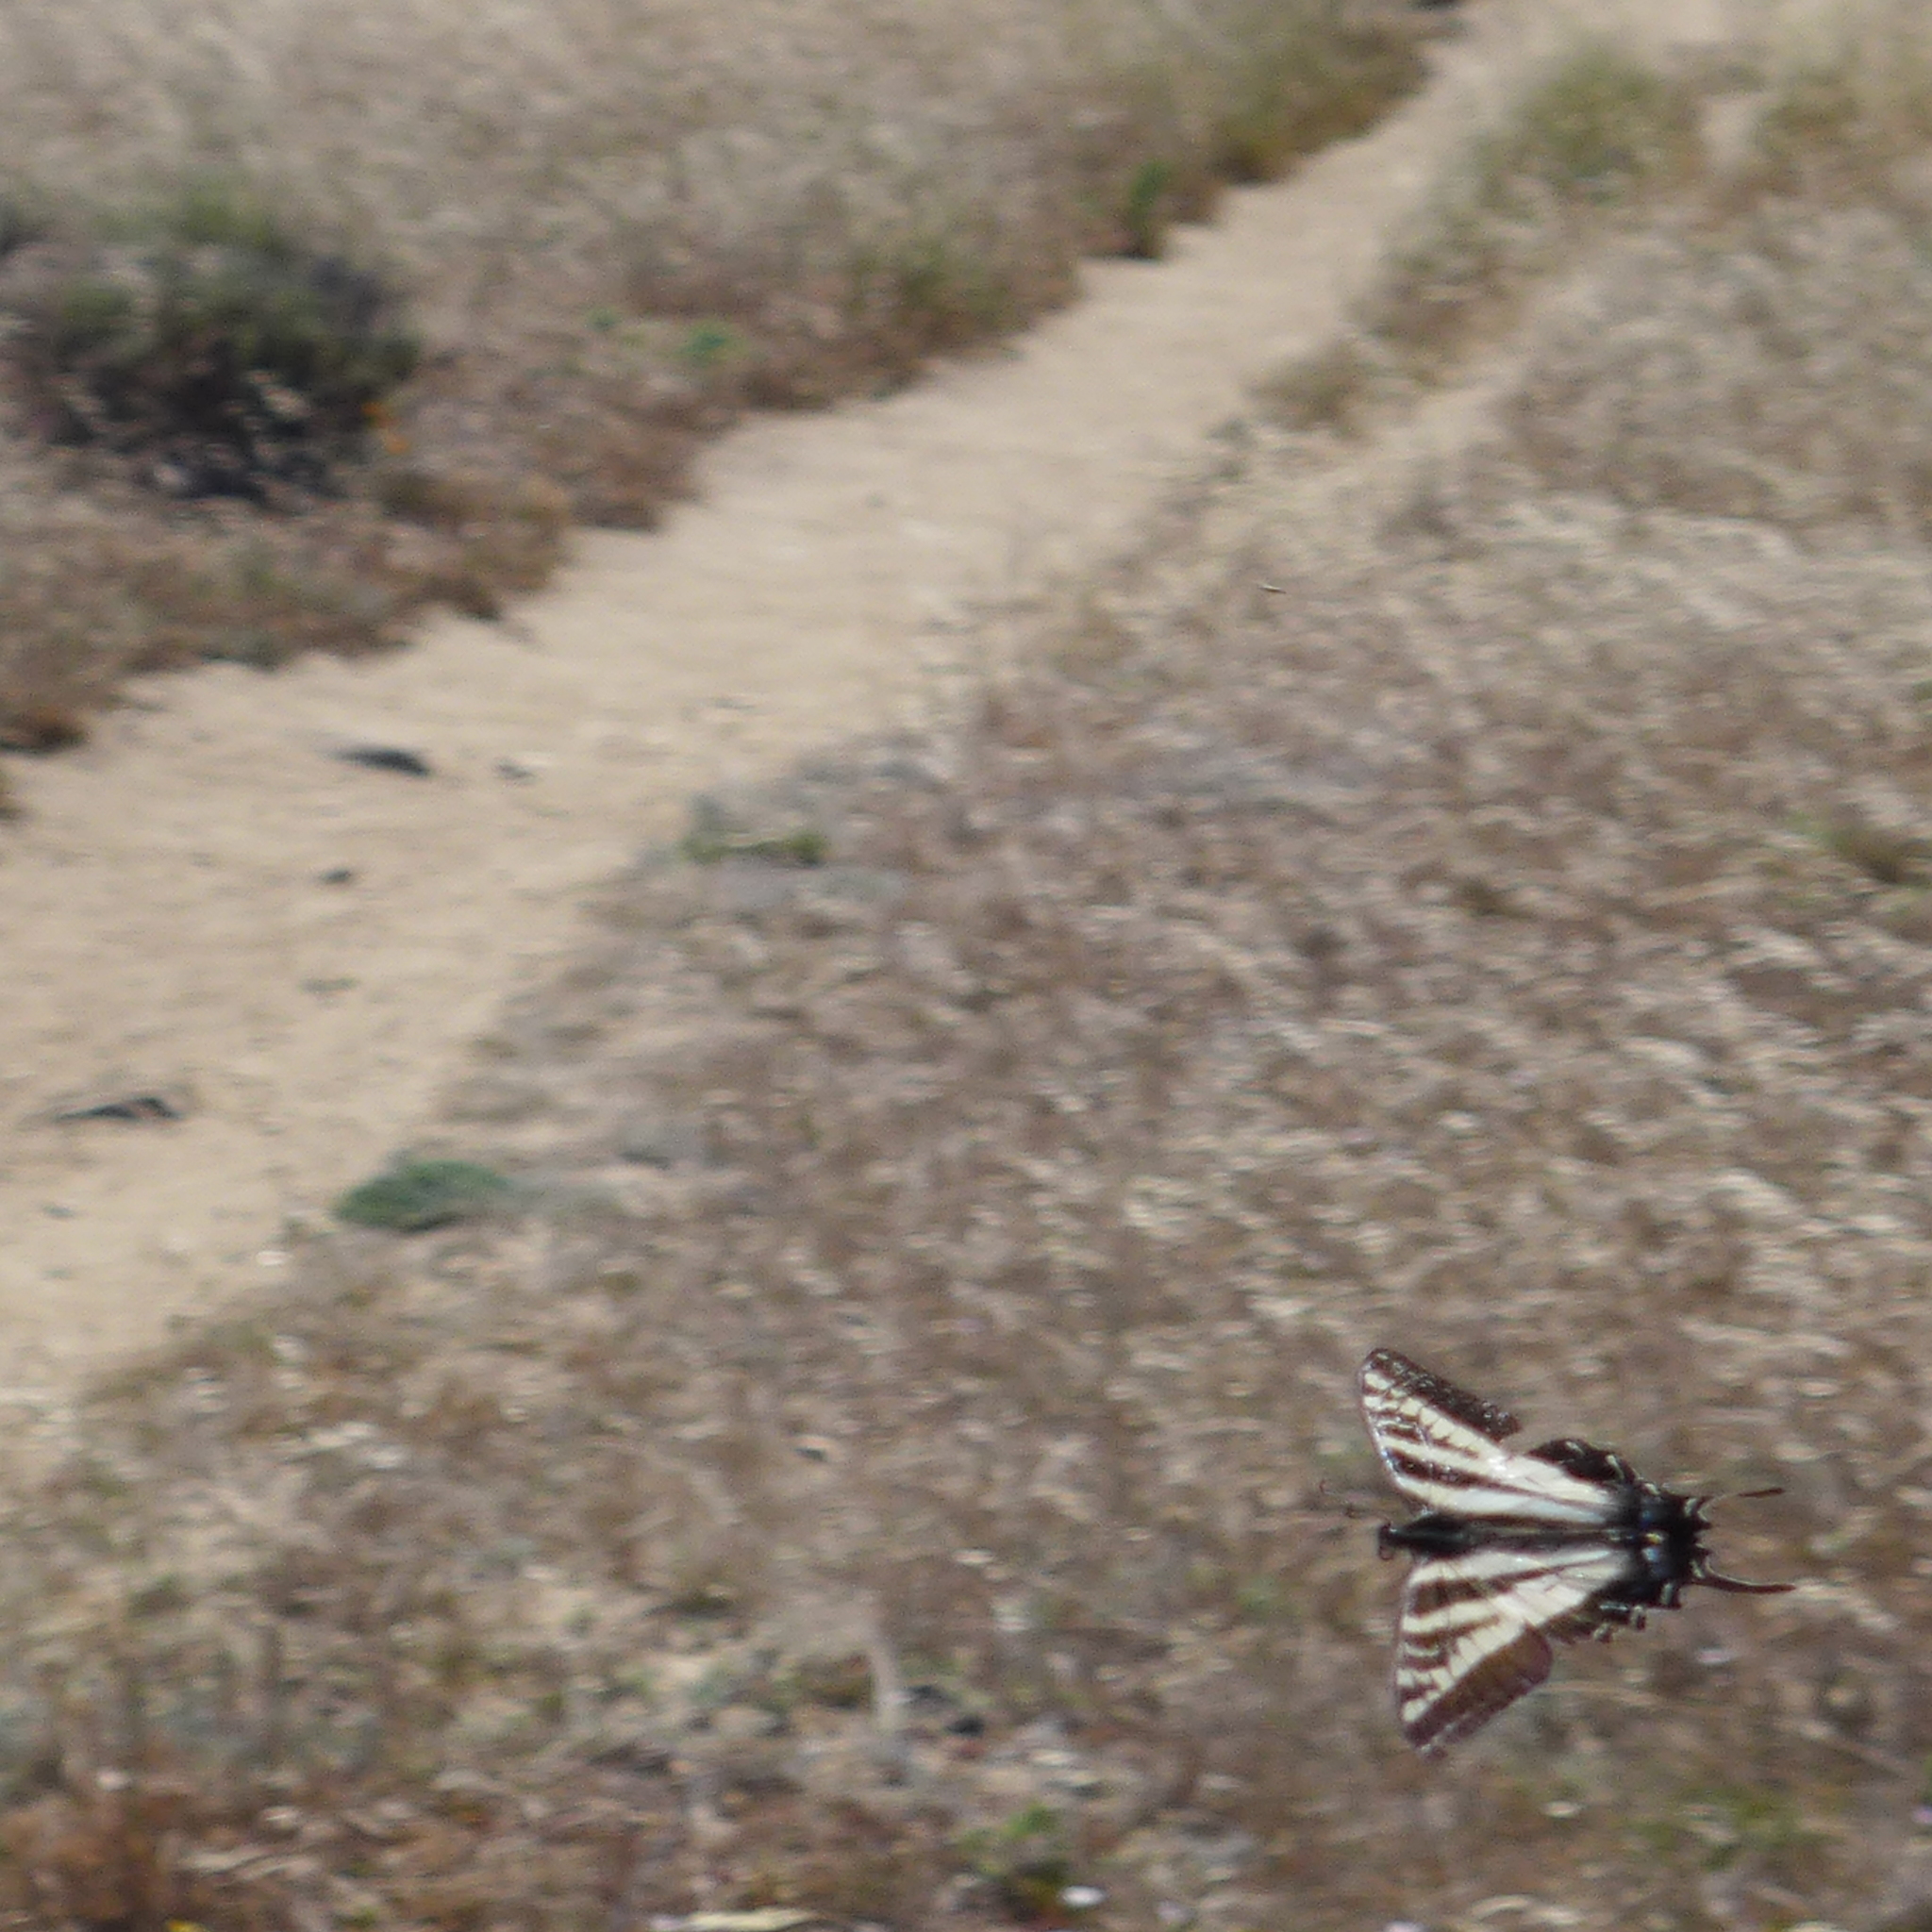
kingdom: Animalia
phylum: Arthropoda
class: Insecta
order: Lepidoptera
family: Papilionidae
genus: Papilio
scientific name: Papilio eurymedon
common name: Pale tiger swallowtail
